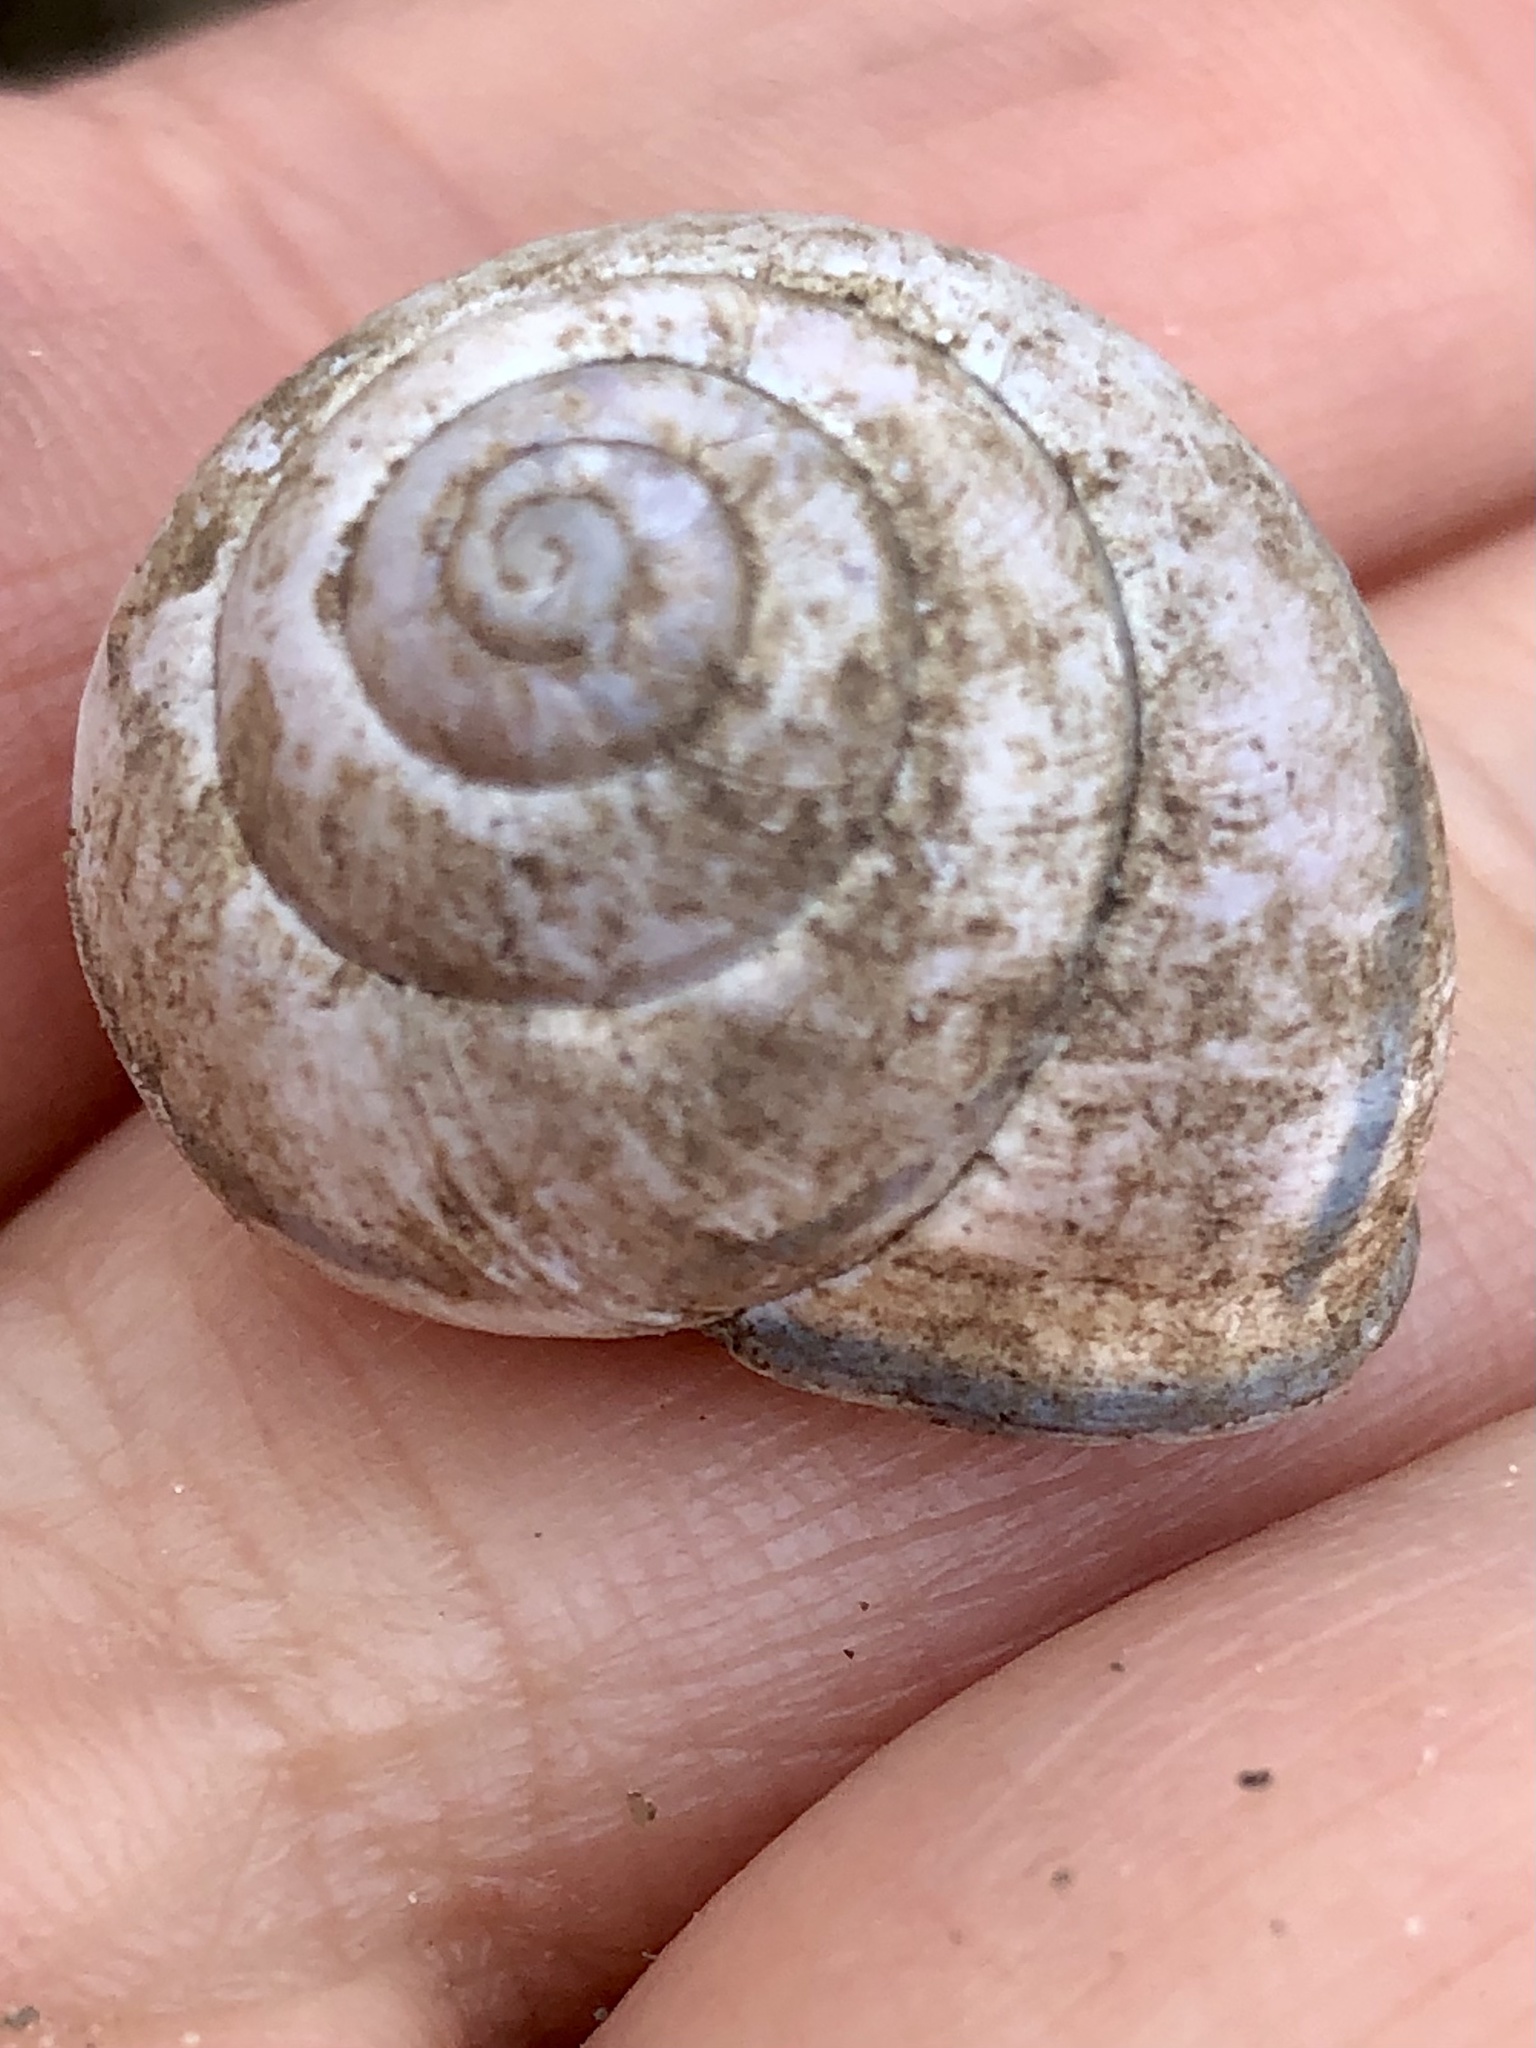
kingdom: Animalia
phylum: Mollusca
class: Gastropoda
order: Stylommatophora
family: Helicidae
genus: Cepaea
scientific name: Cepaea nemoralis
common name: Grovesnail
